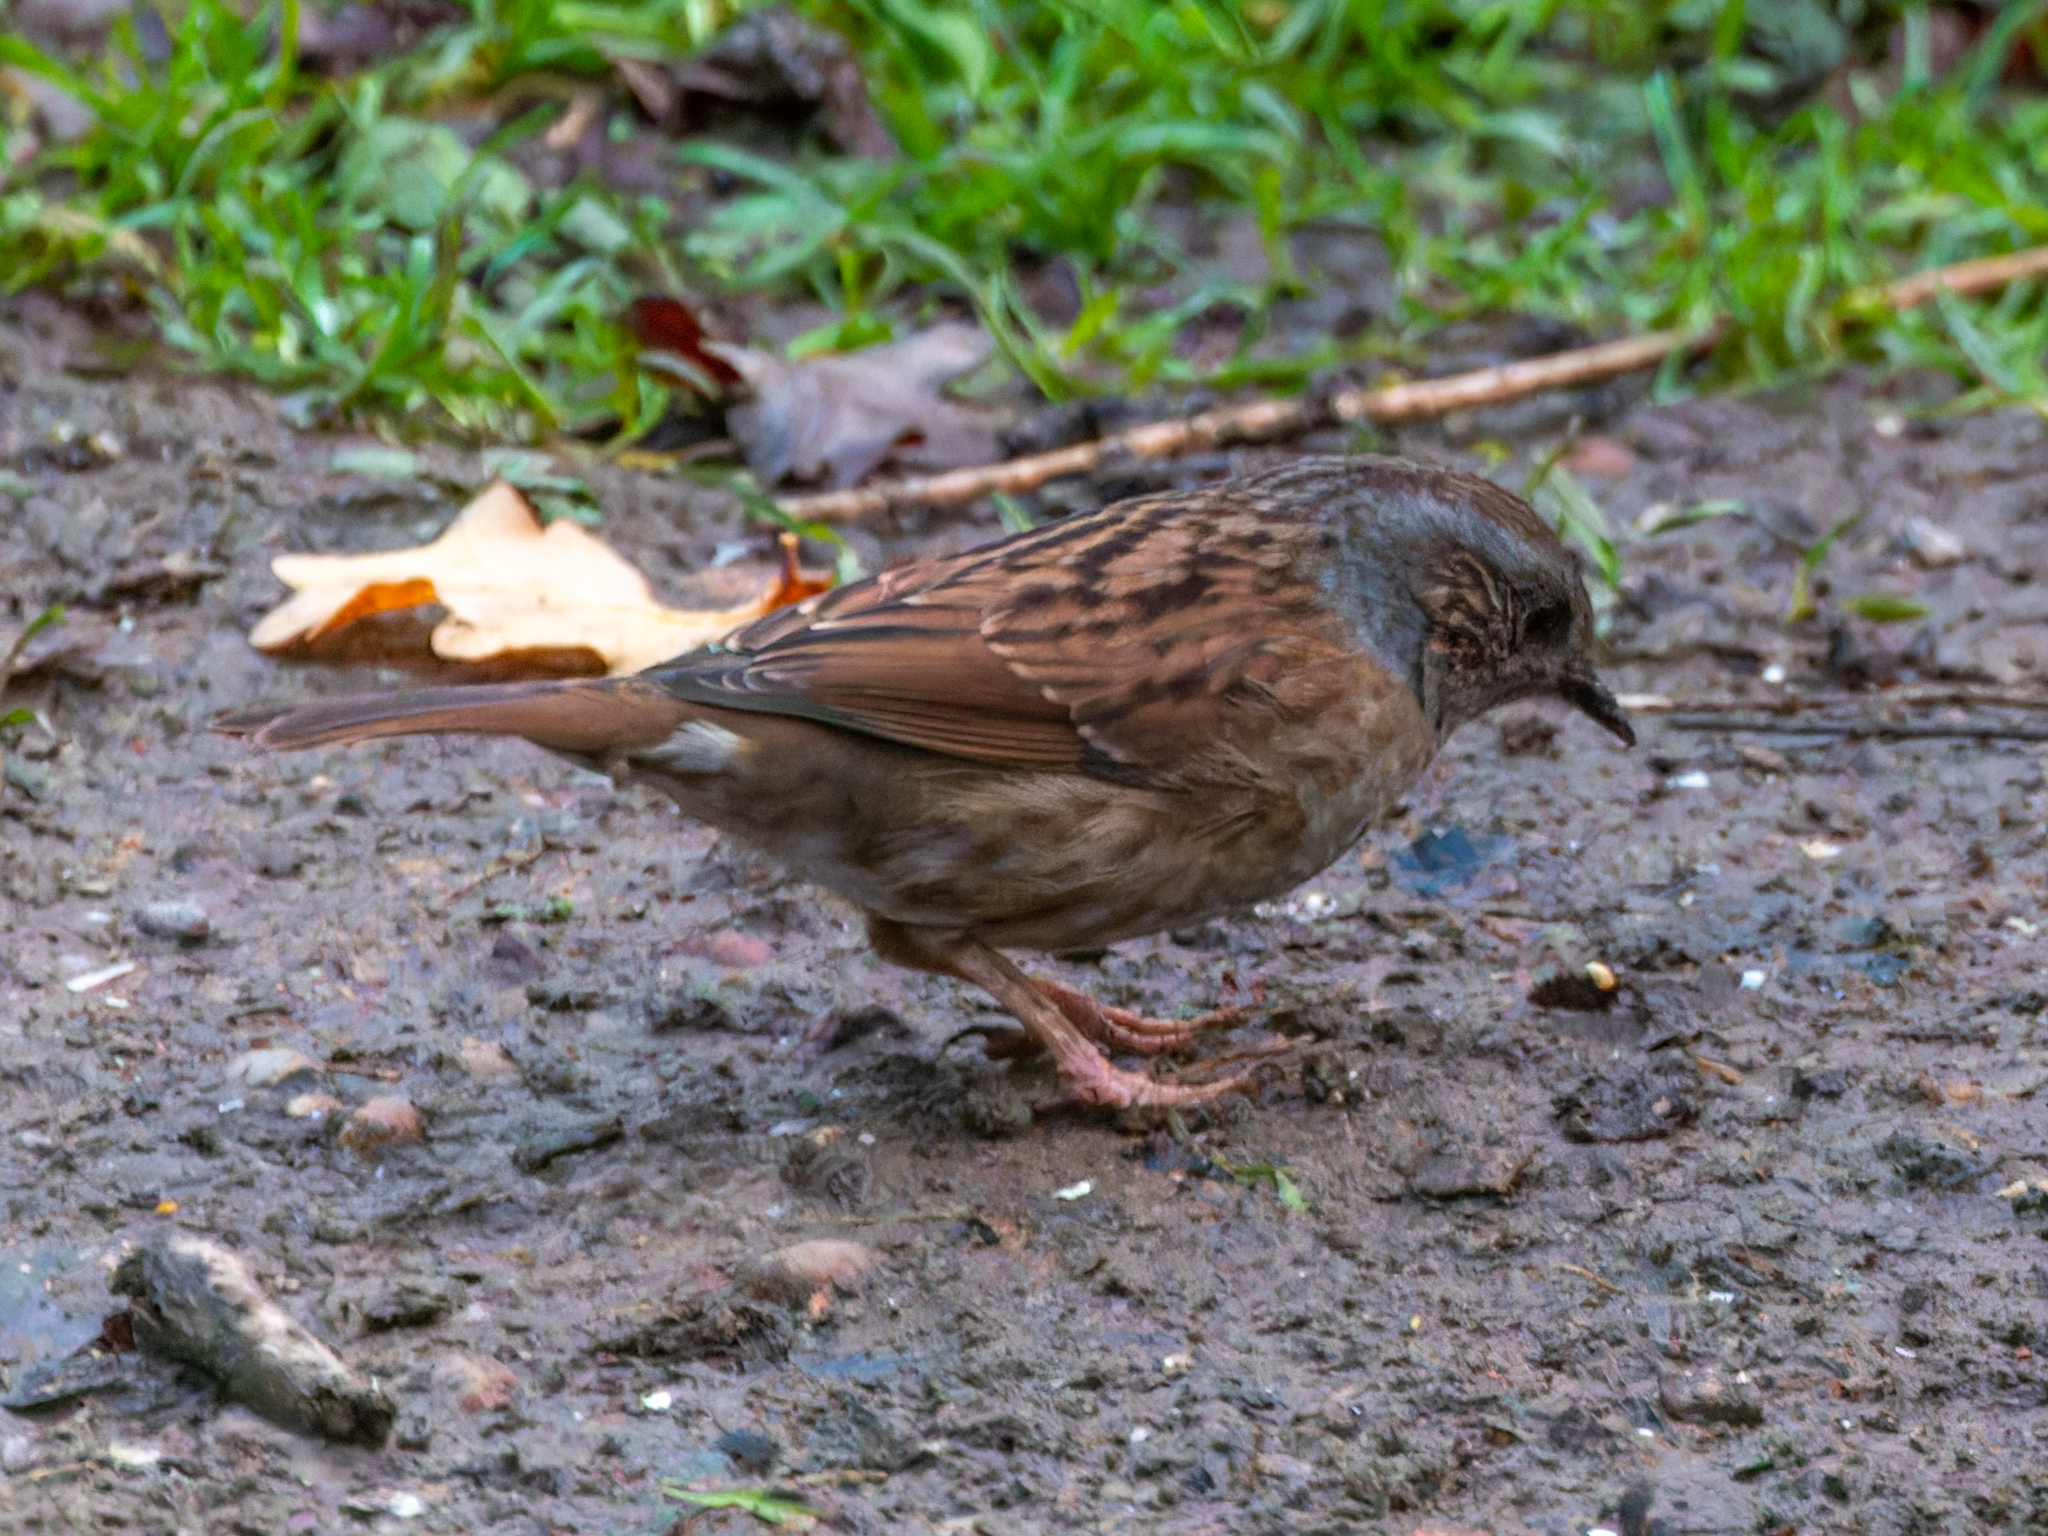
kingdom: Animalia
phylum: Chordata
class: Aves
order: Passeriformes
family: Prunellidae
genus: Prunella
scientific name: Prunella modularis
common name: Dunnock
